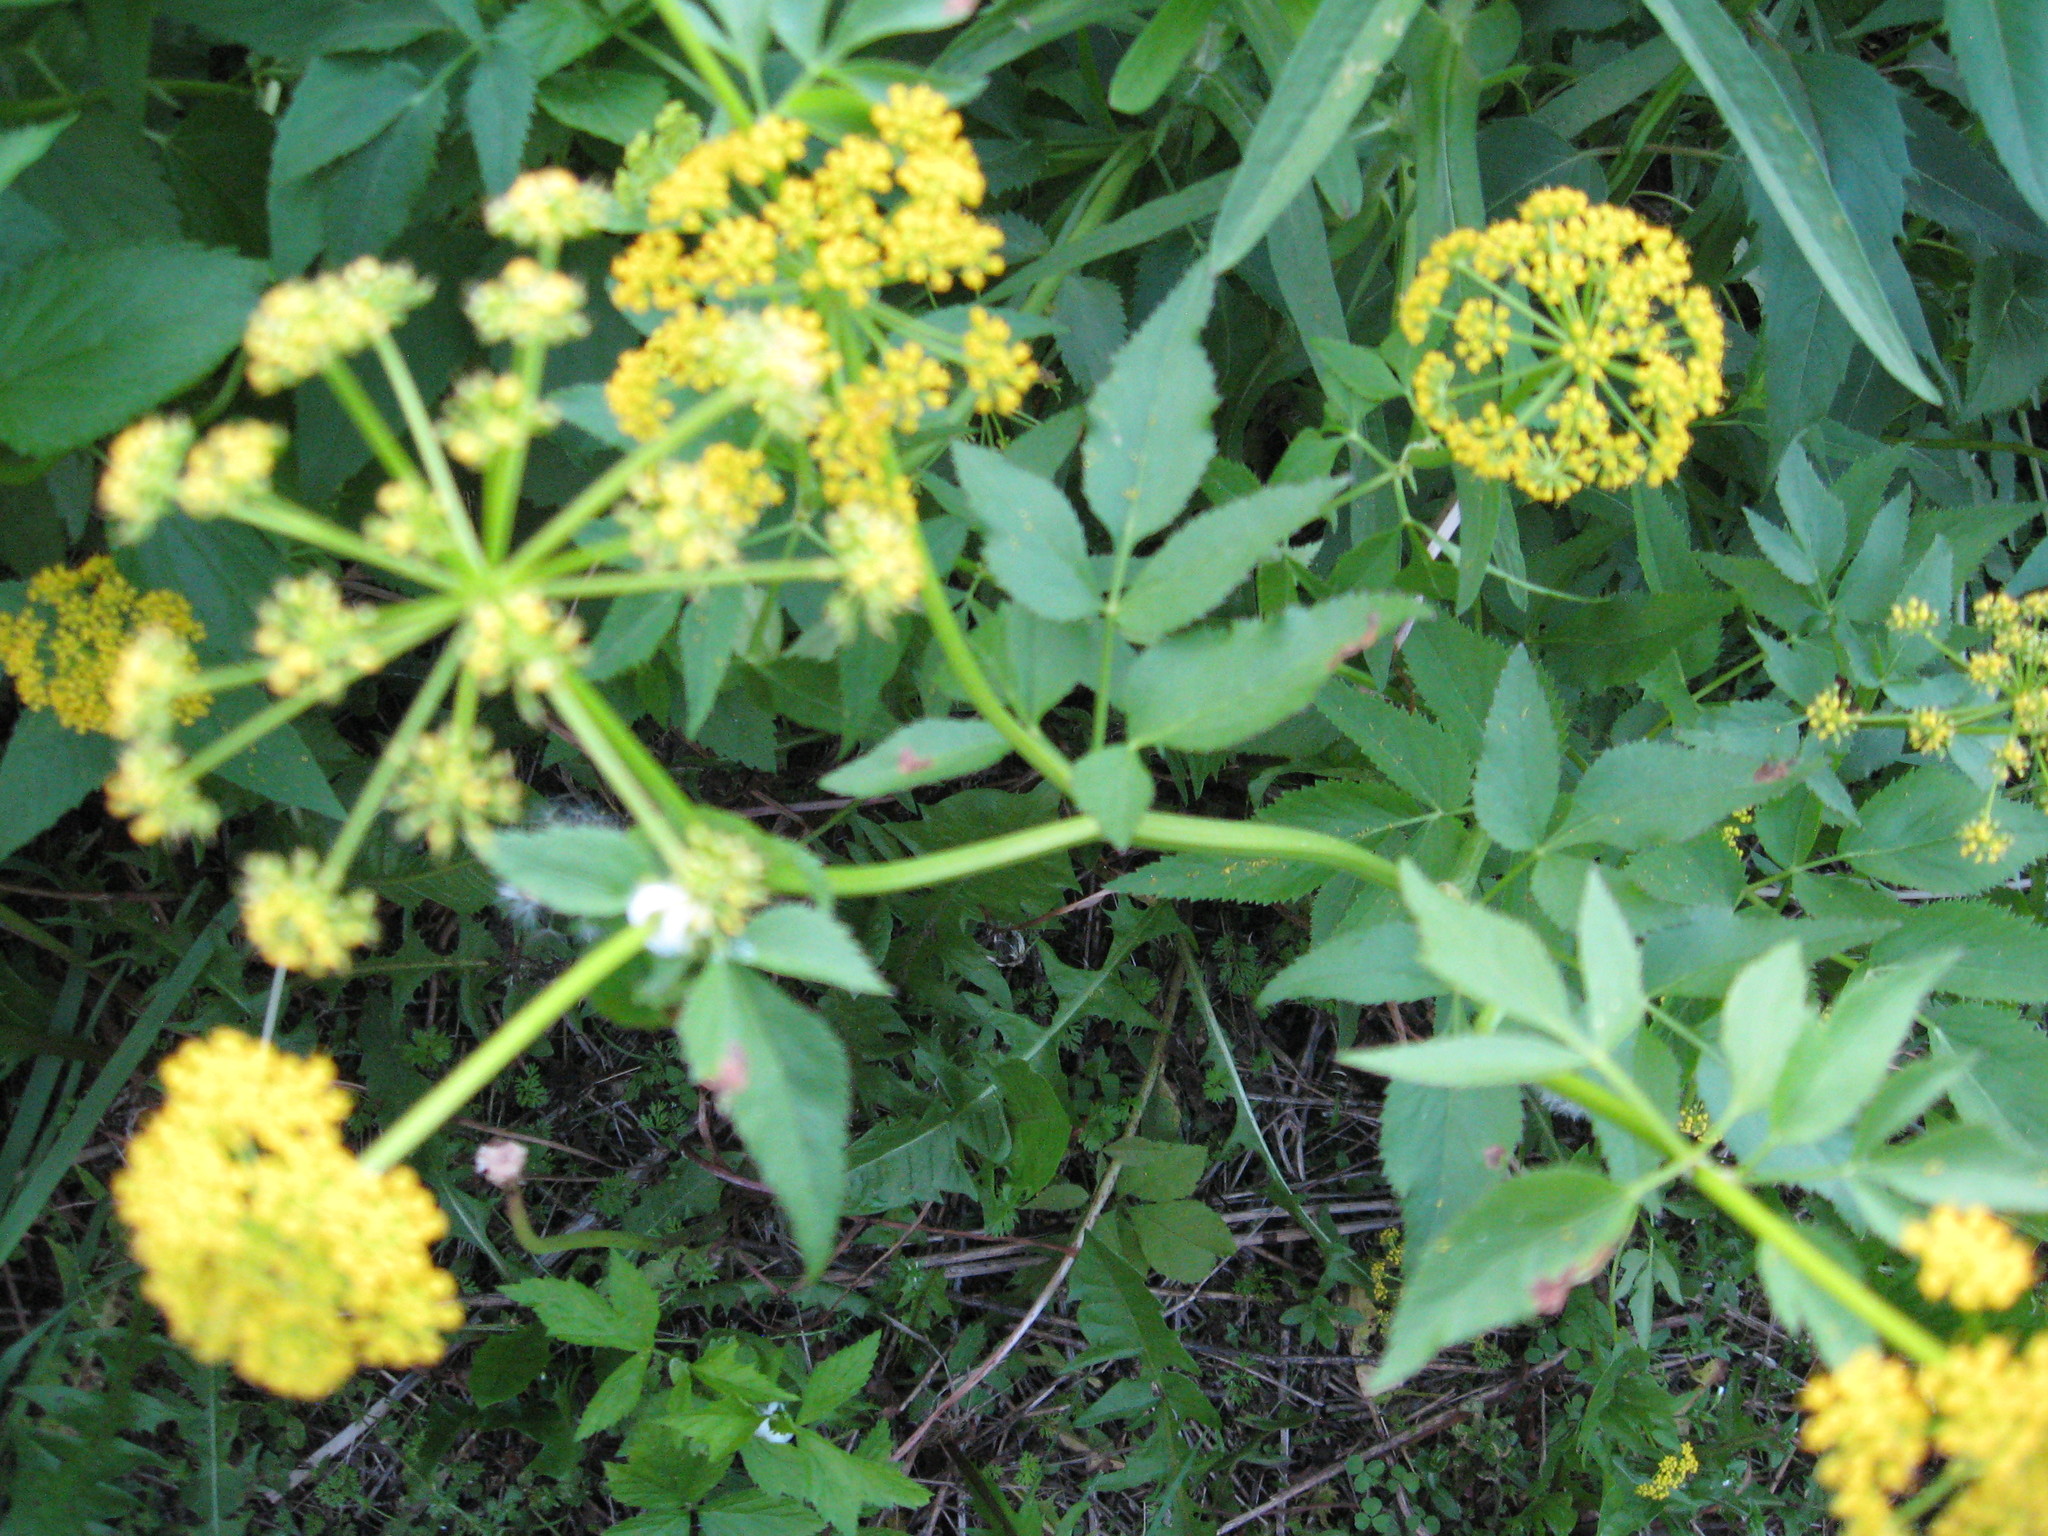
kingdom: Plantae
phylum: Tracheophyta
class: Magnoliopsida
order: Apiales
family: Apiaceae
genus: Zizia
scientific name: Zizia aurea
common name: Golden alexanders
